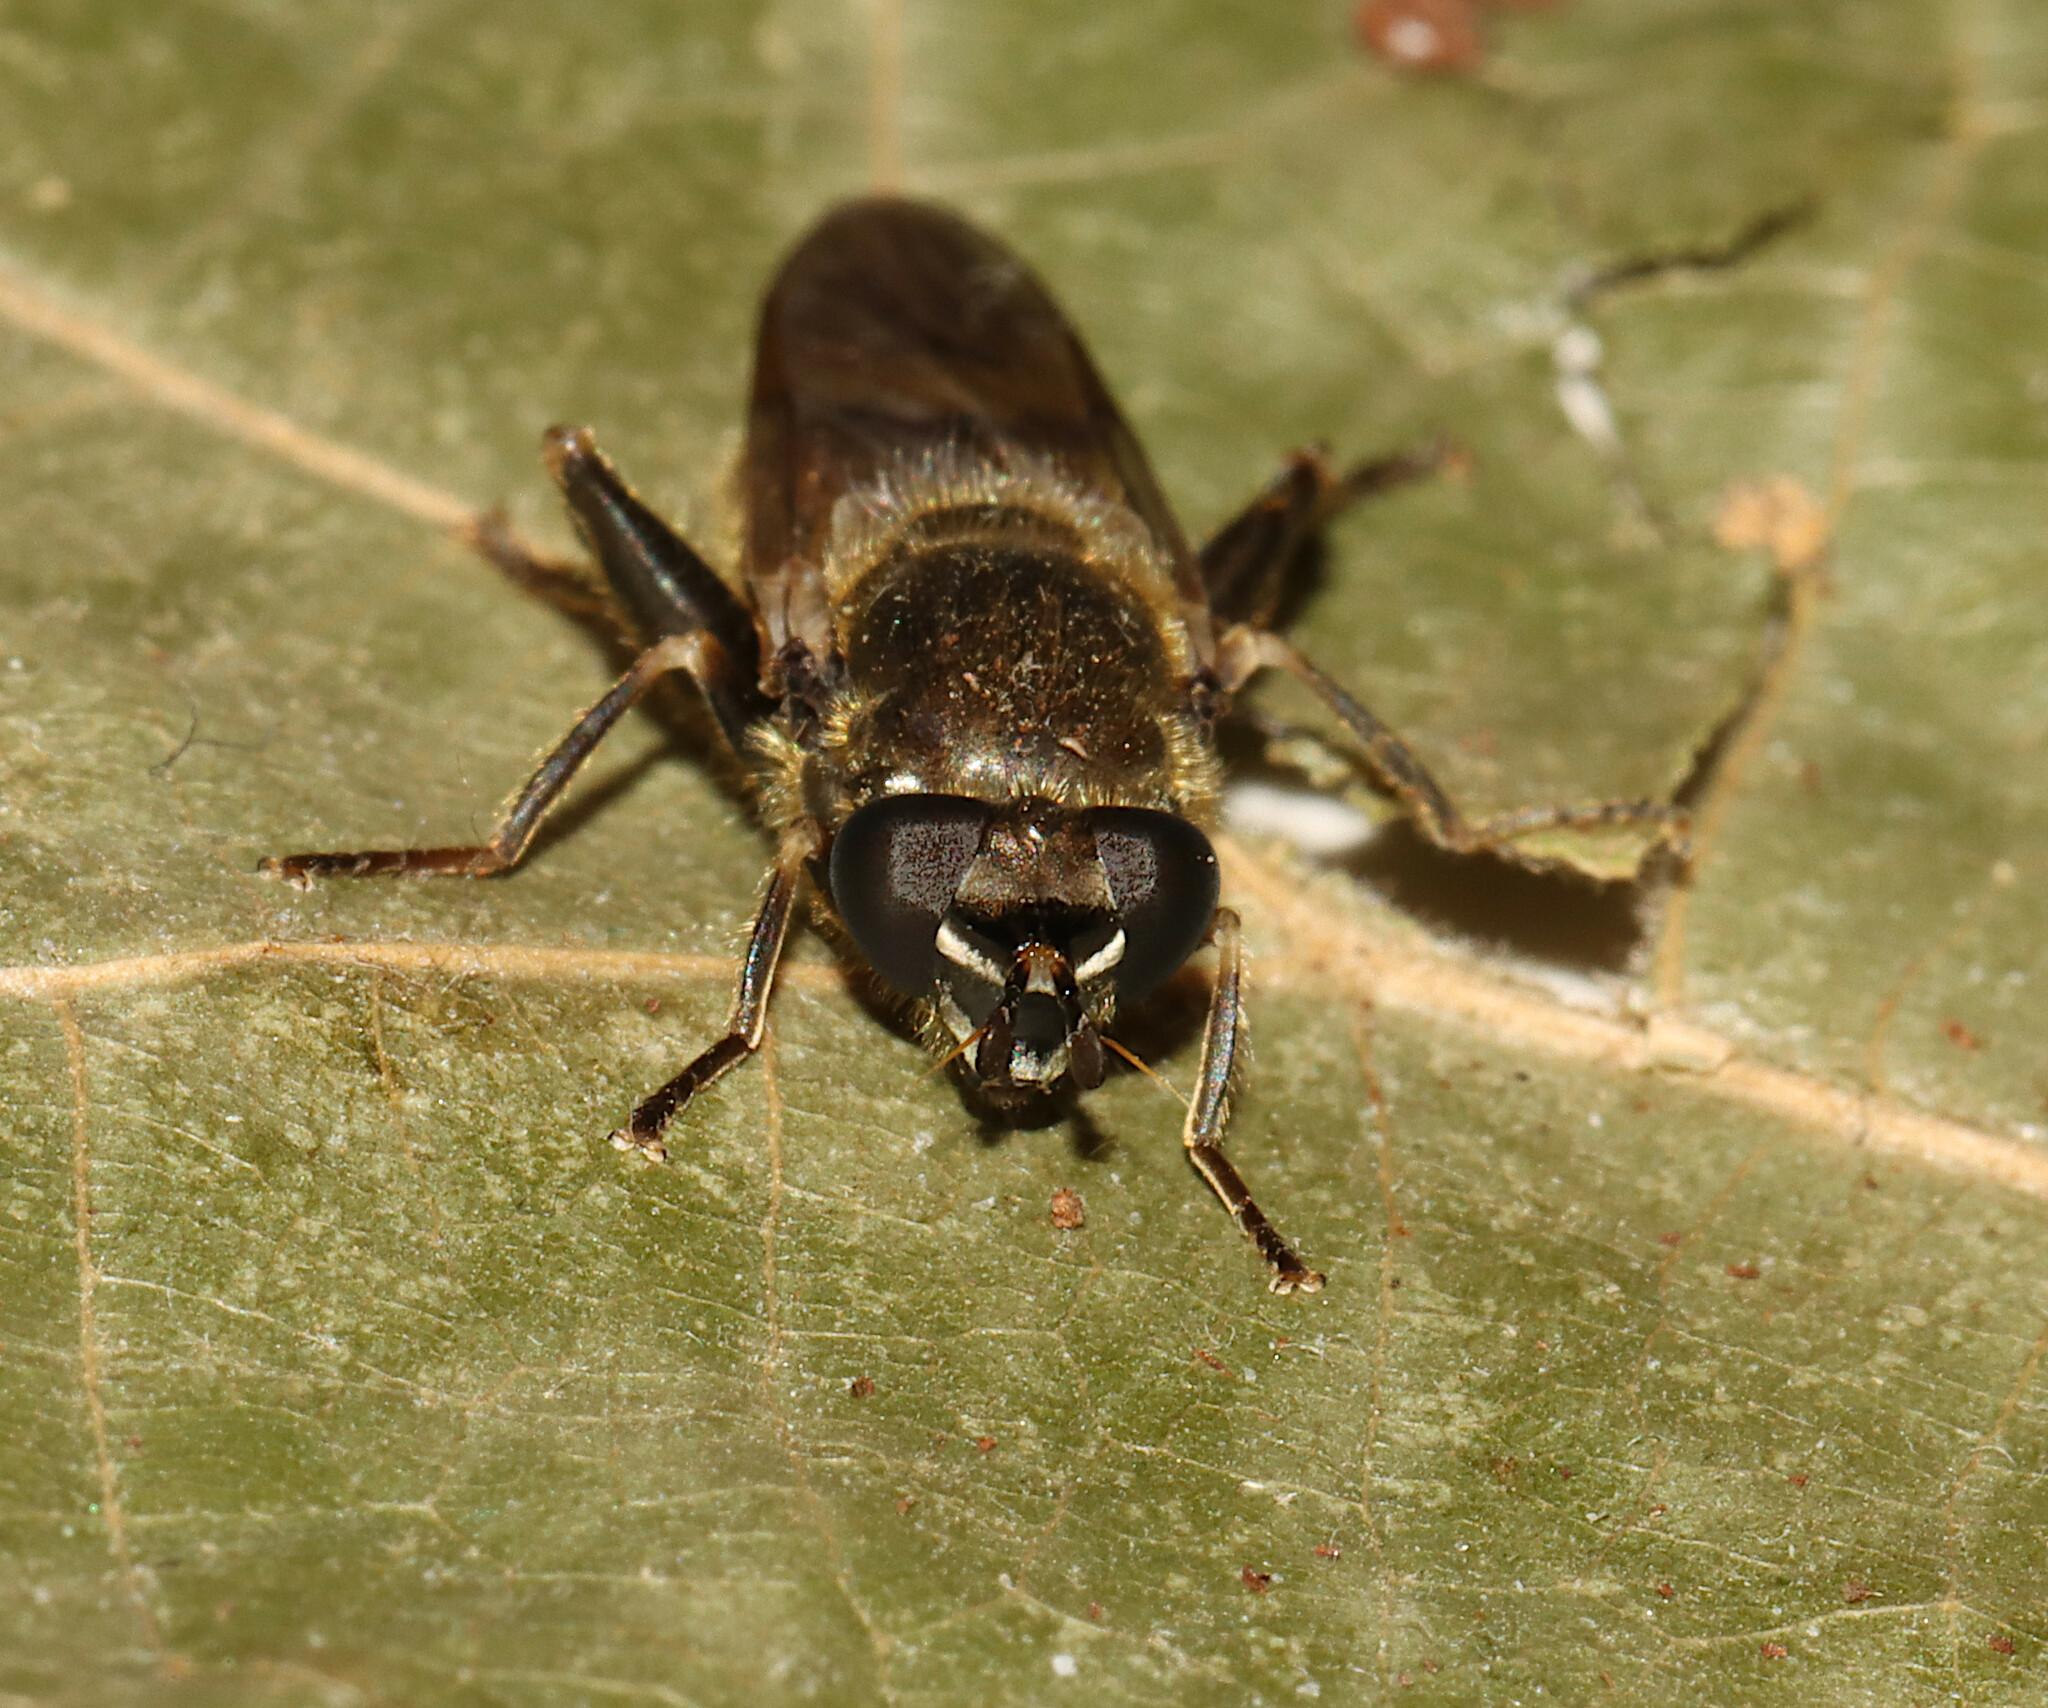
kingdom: Animalia
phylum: Arthropoda
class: Insecta
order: Diptera
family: Syrphidae
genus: Brachypalpus
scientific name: Brachypalpus oarus
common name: Eastern catkin fly
